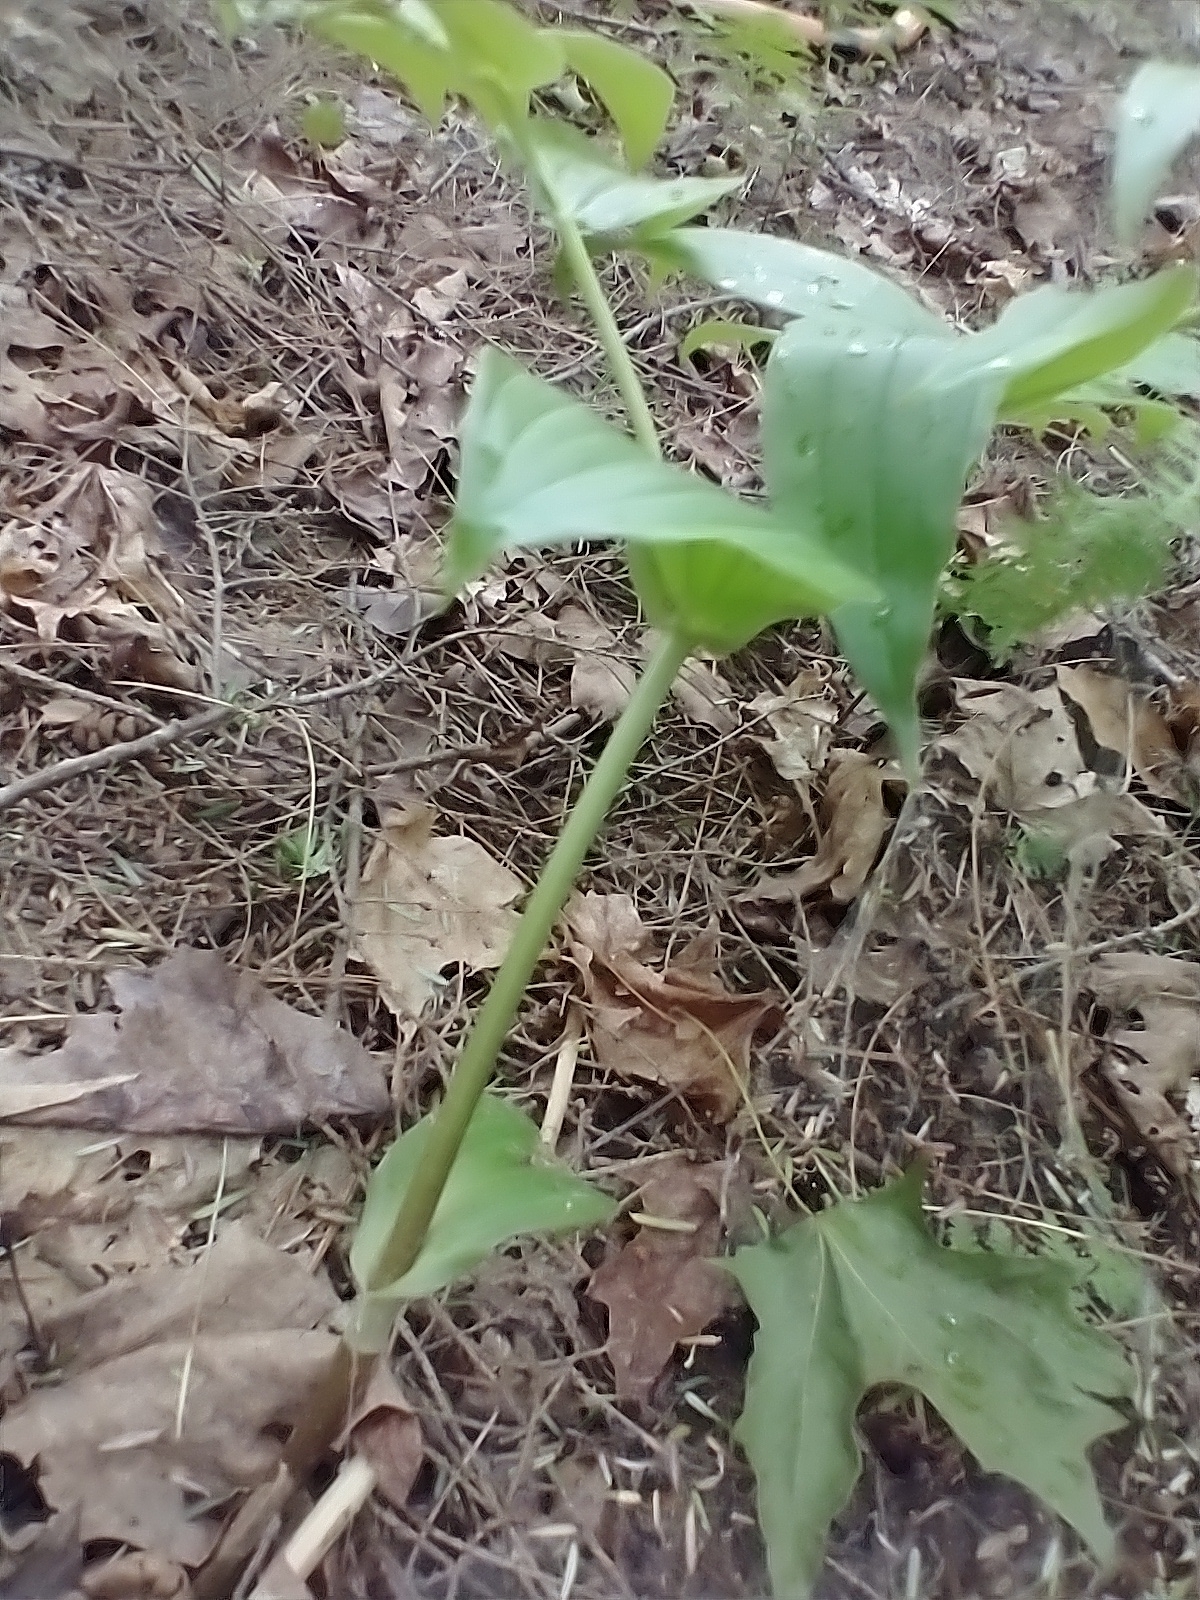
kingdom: Plantae
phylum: Tracheophyta
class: Liliopsida
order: Liliales
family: Liliaceae
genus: Streptopus
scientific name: Streptopus lanceolatus
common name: Rose mandarin
